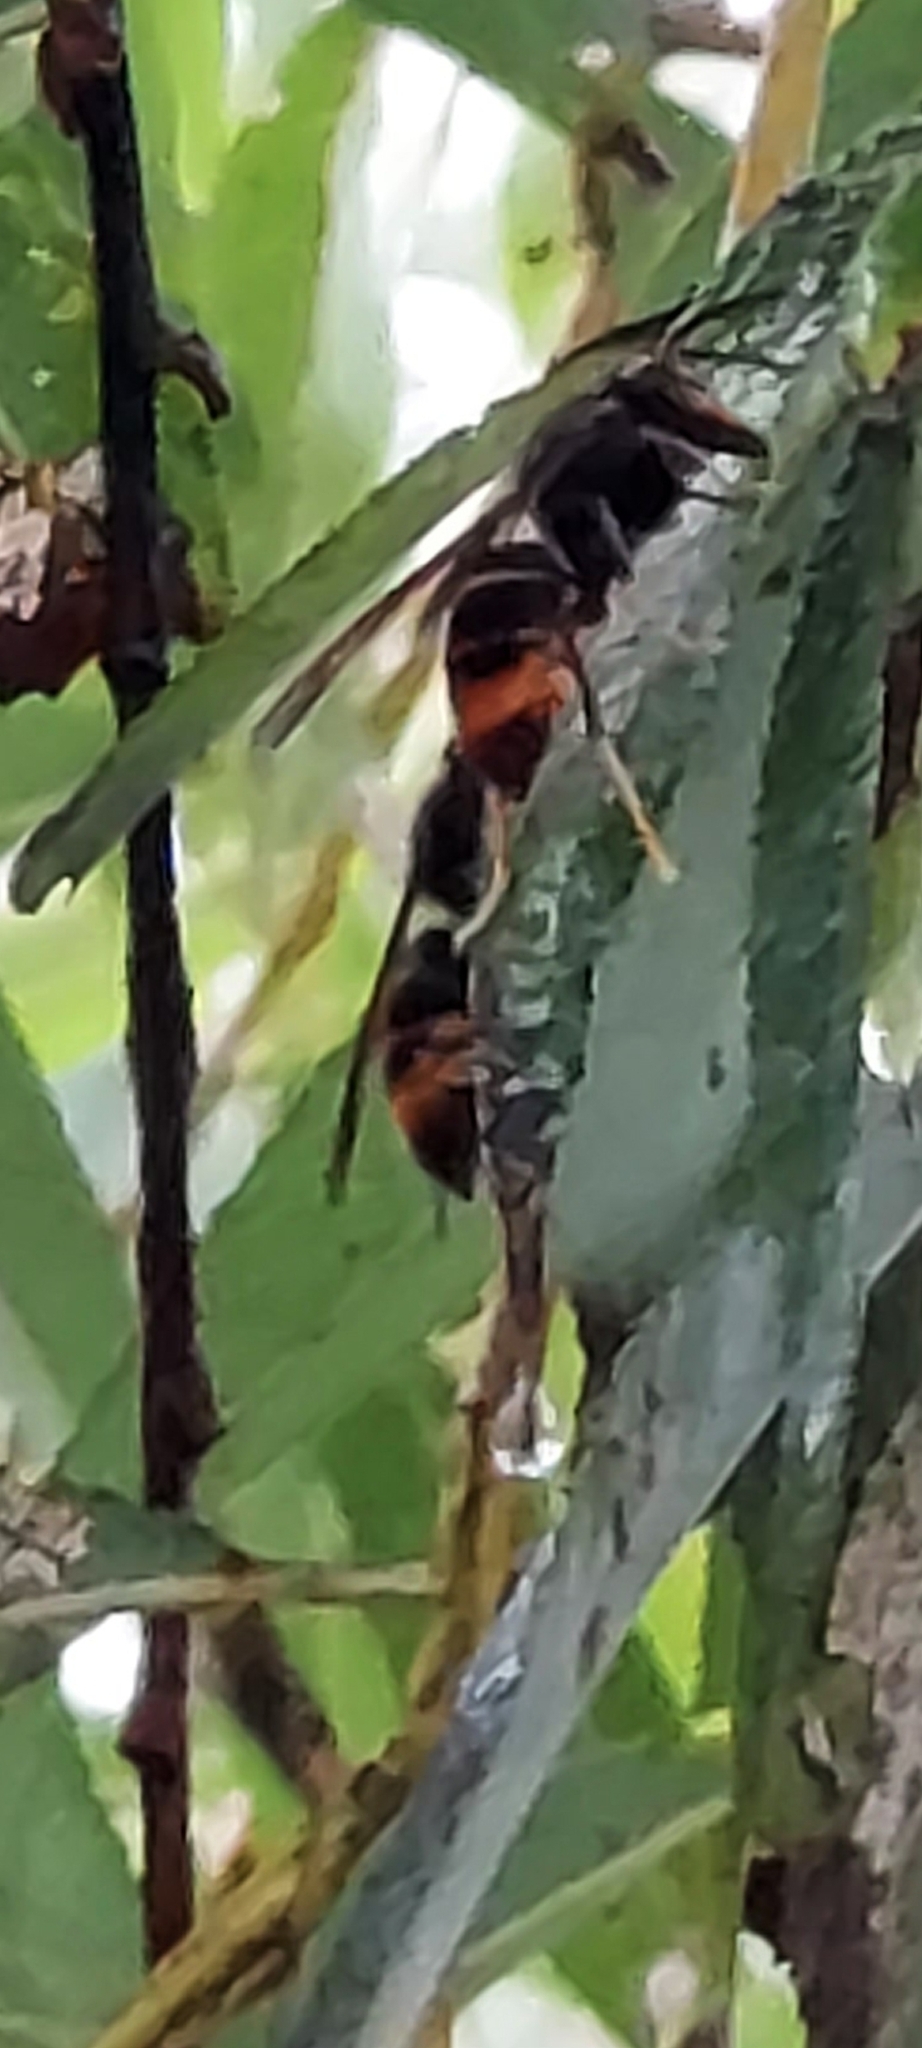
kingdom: Animalia
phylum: Arthropoda
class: Insecta
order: Hymenoptera
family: Vespidae
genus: Vespa
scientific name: Vespa velutina
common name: Asian hornet
